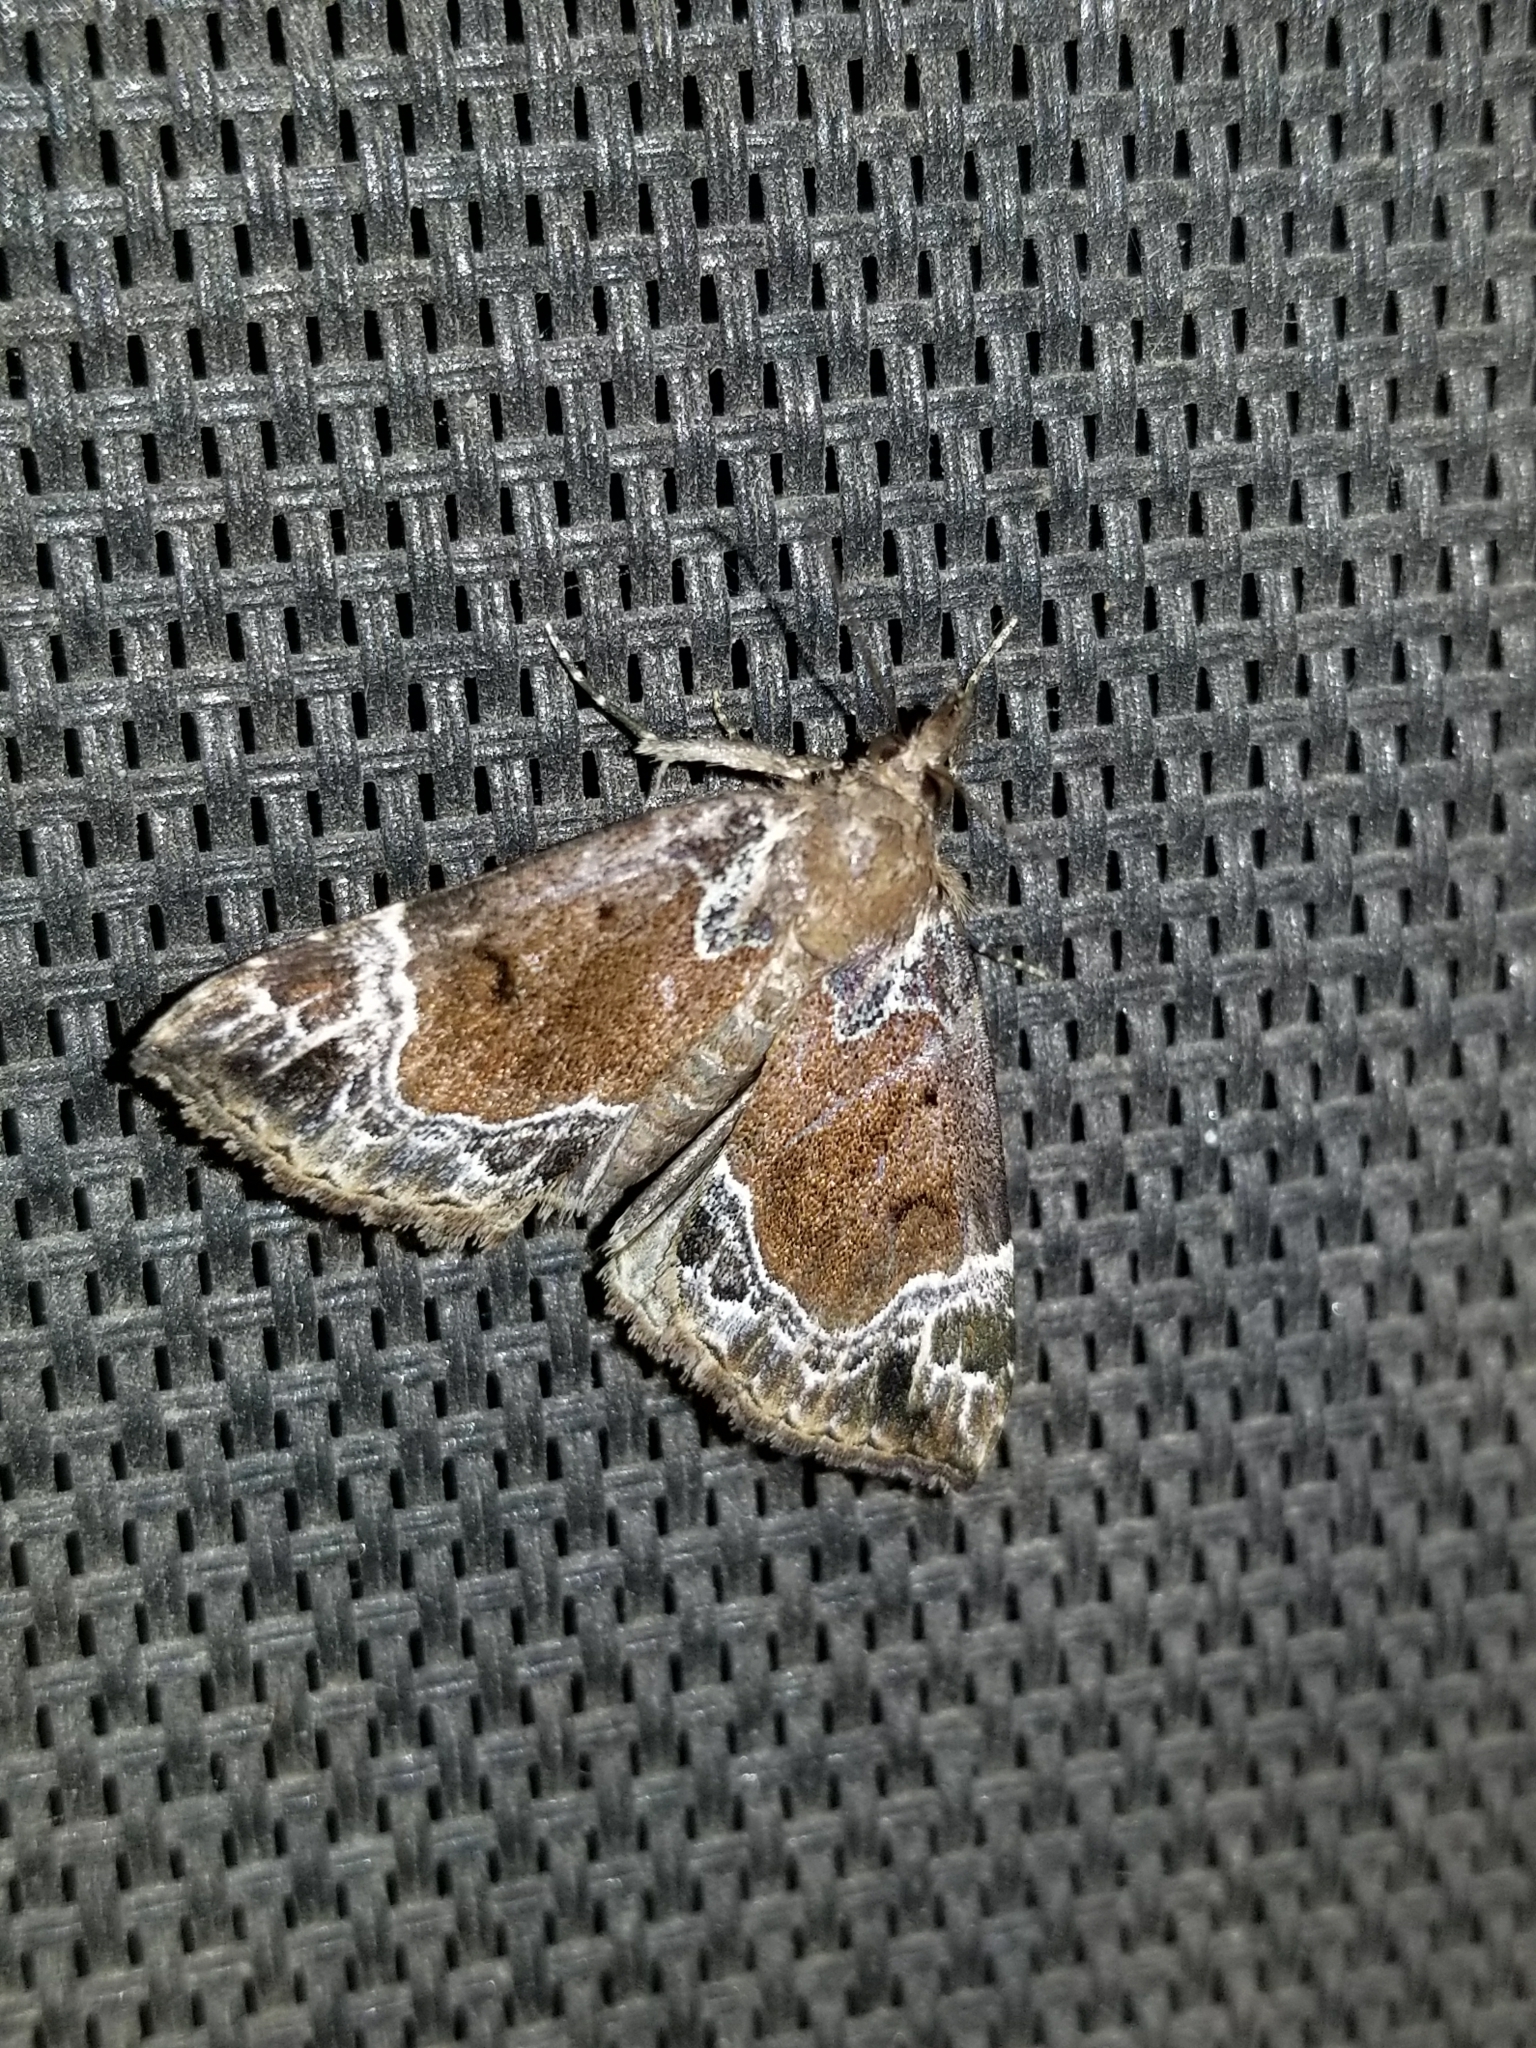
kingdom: Animalia
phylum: Arthropoda
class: Insecta
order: Lepidoptera
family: Erebidae
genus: Hypena
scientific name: Hypena abalienalis
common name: White-lined snout
